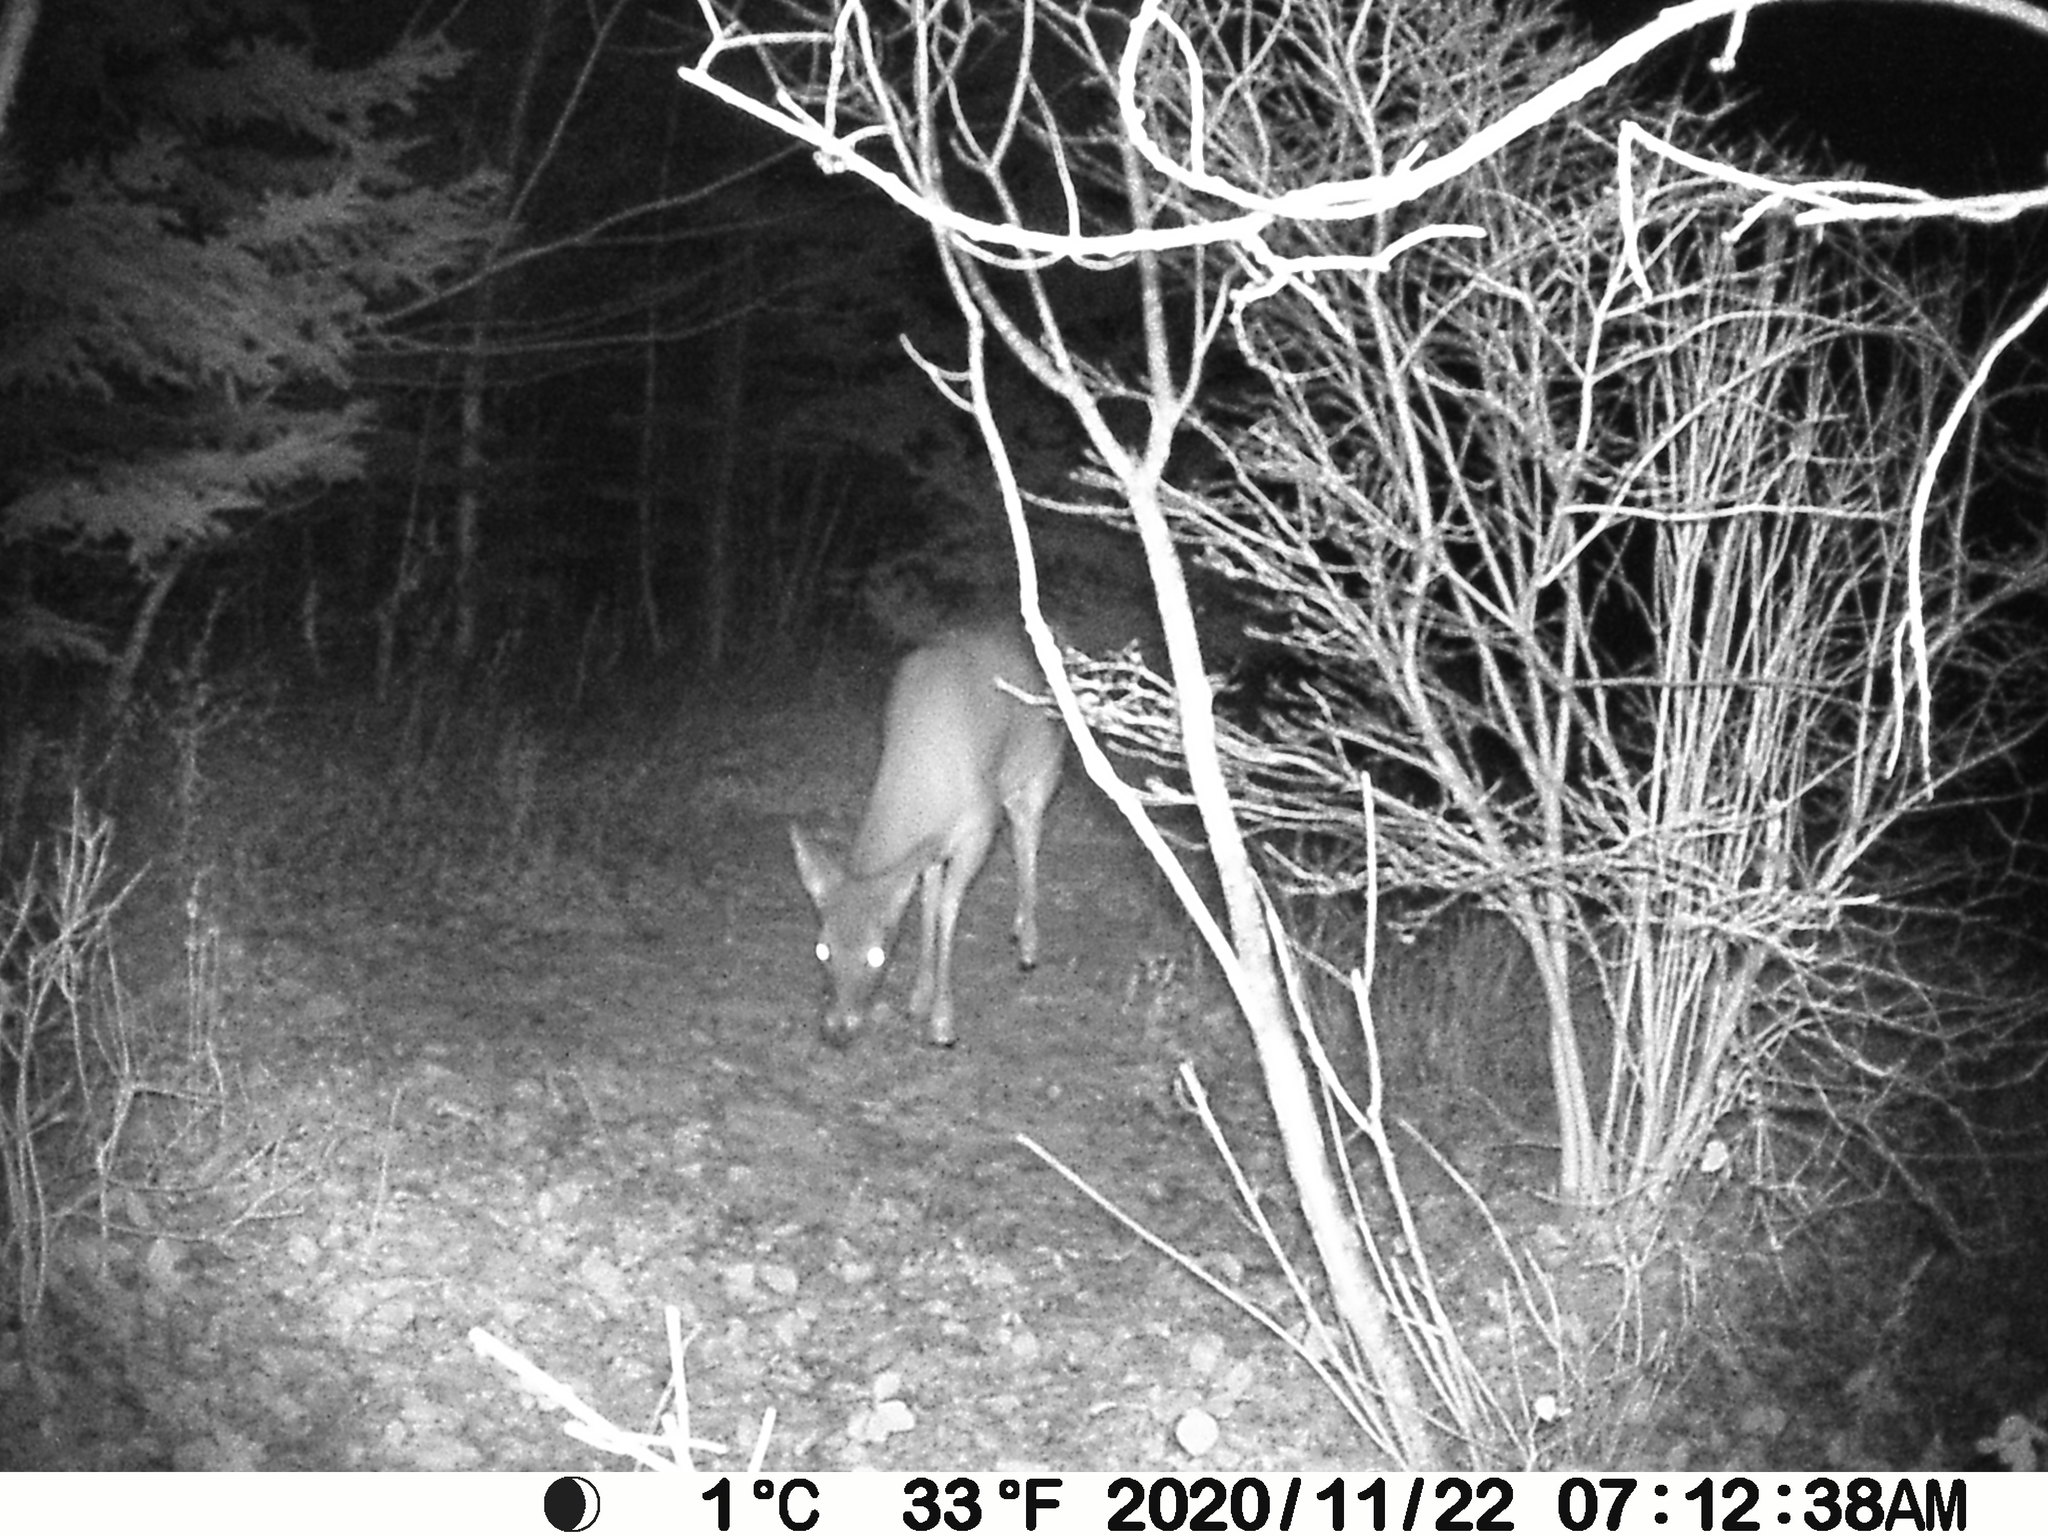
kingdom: Animalia
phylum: Chordata
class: Mammalia
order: Artiodactyla
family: Cervidae
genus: Odocoileus
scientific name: Odocoileus virginianus
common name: White-tailed deer
